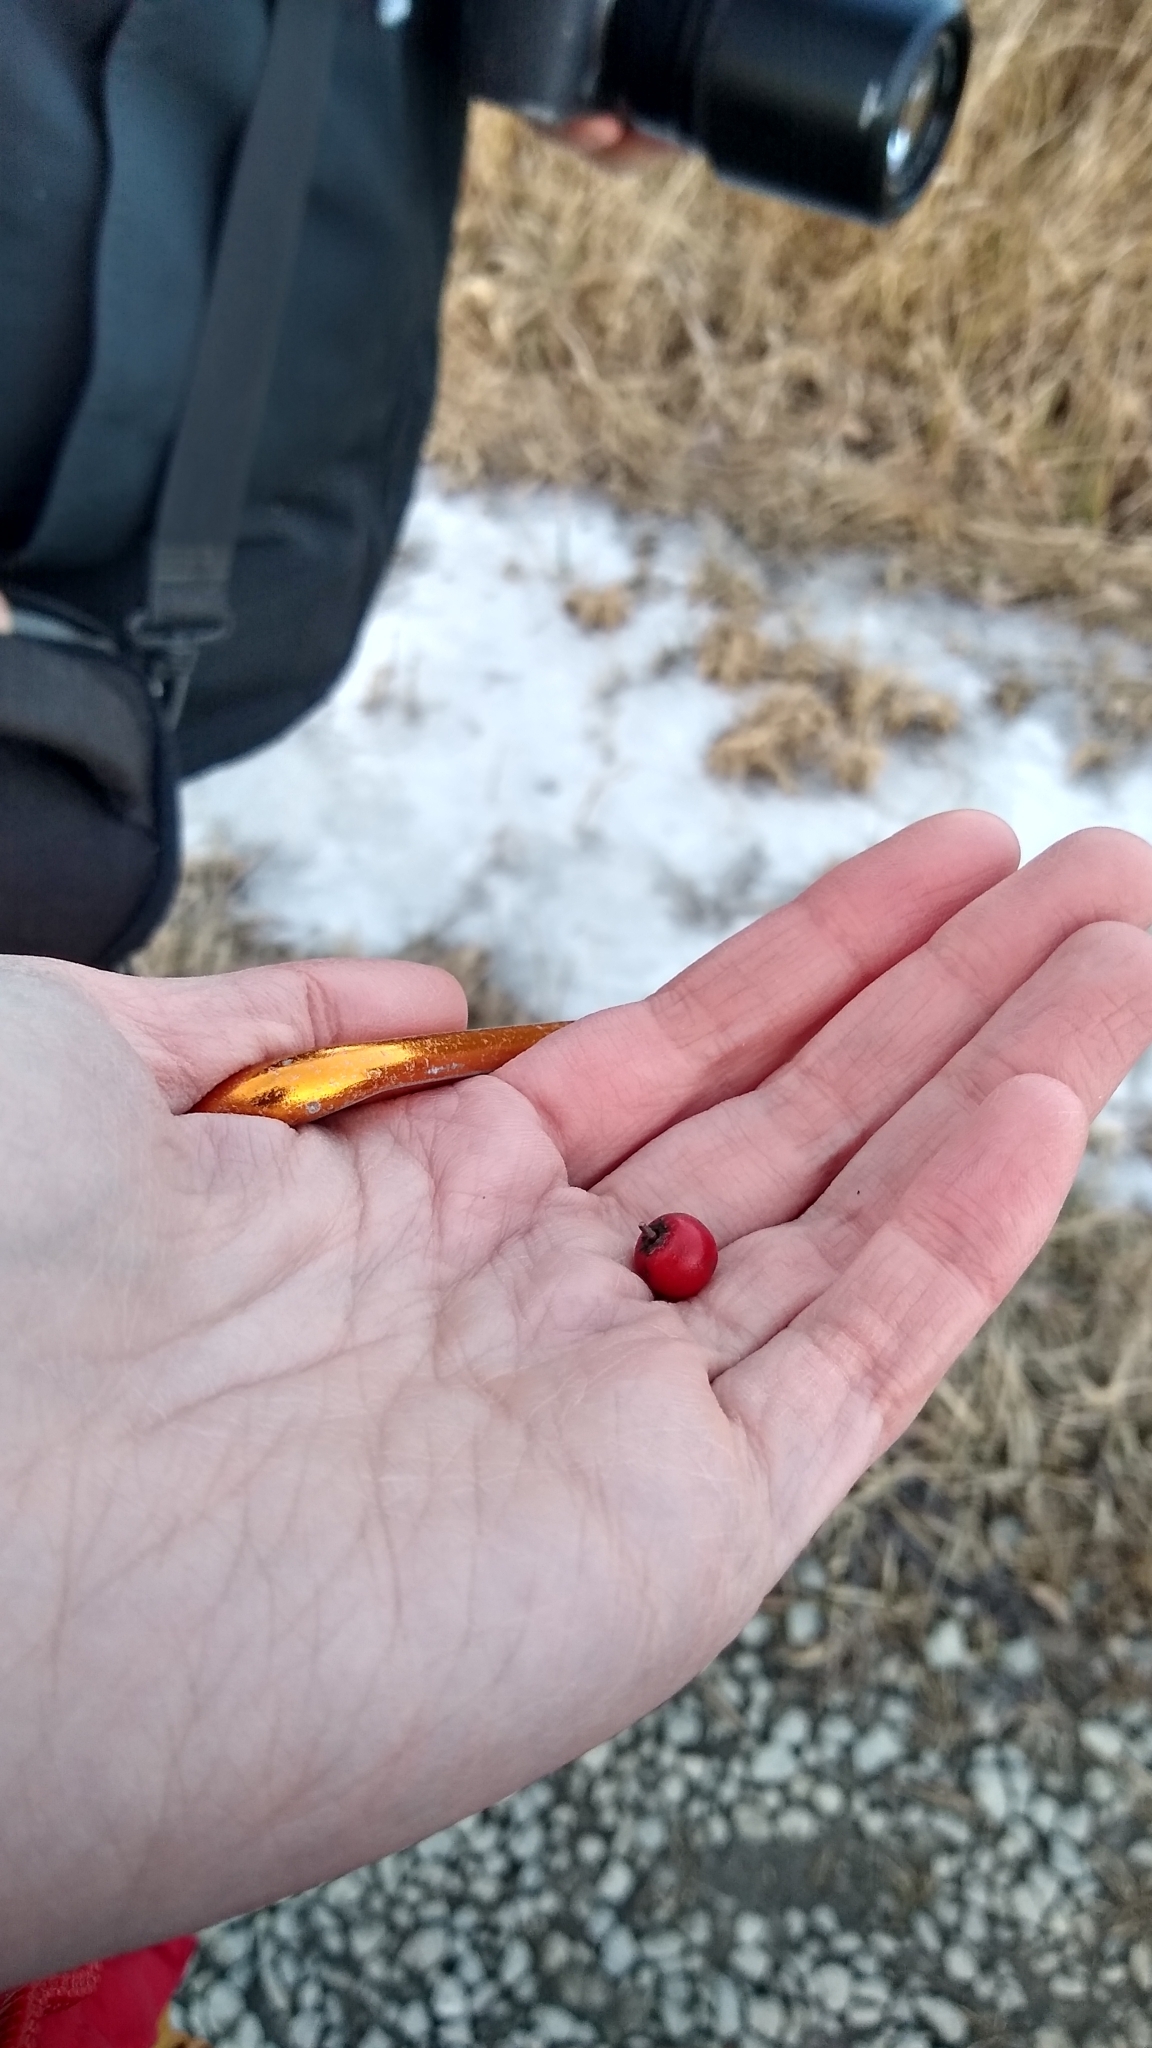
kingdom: Plantae
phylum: Tracheophyta
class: Magnoliopsida
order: Aquifoliales
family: Aquifoliaceae
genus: Ilex
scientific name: Ilex verticillata
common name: Virginia winterberry
